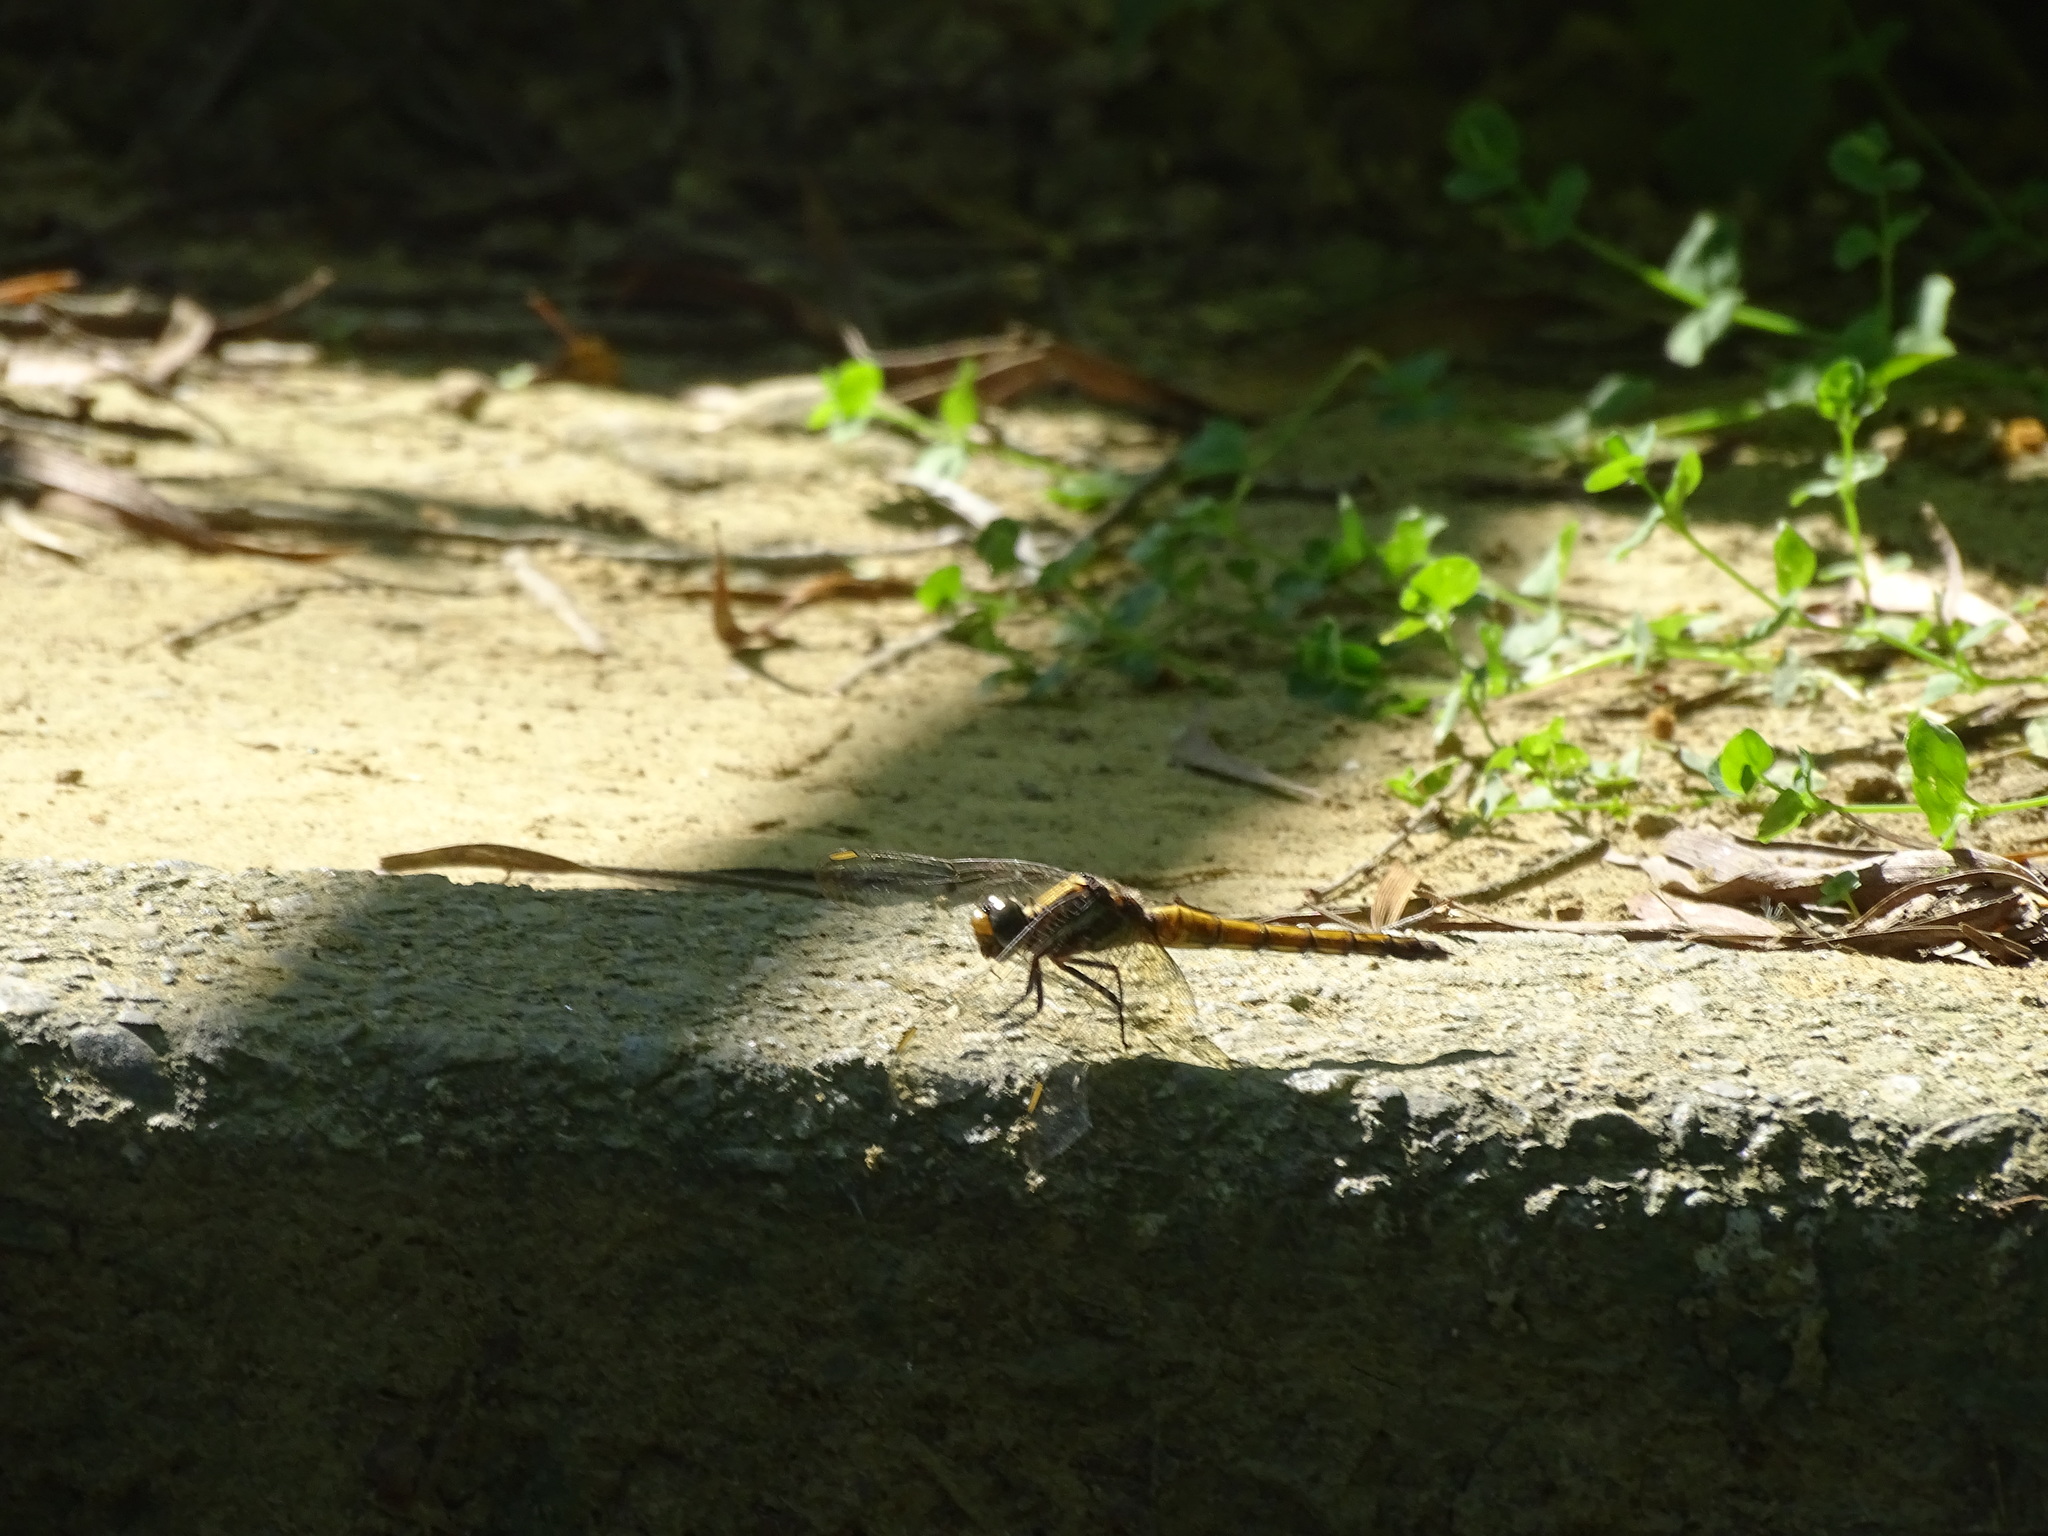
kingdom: Animalia
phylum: Arthropoda
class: Insecta
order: Odonata
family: Libellulidae
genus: Orthetrum
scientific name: Orthetrum glaucum
